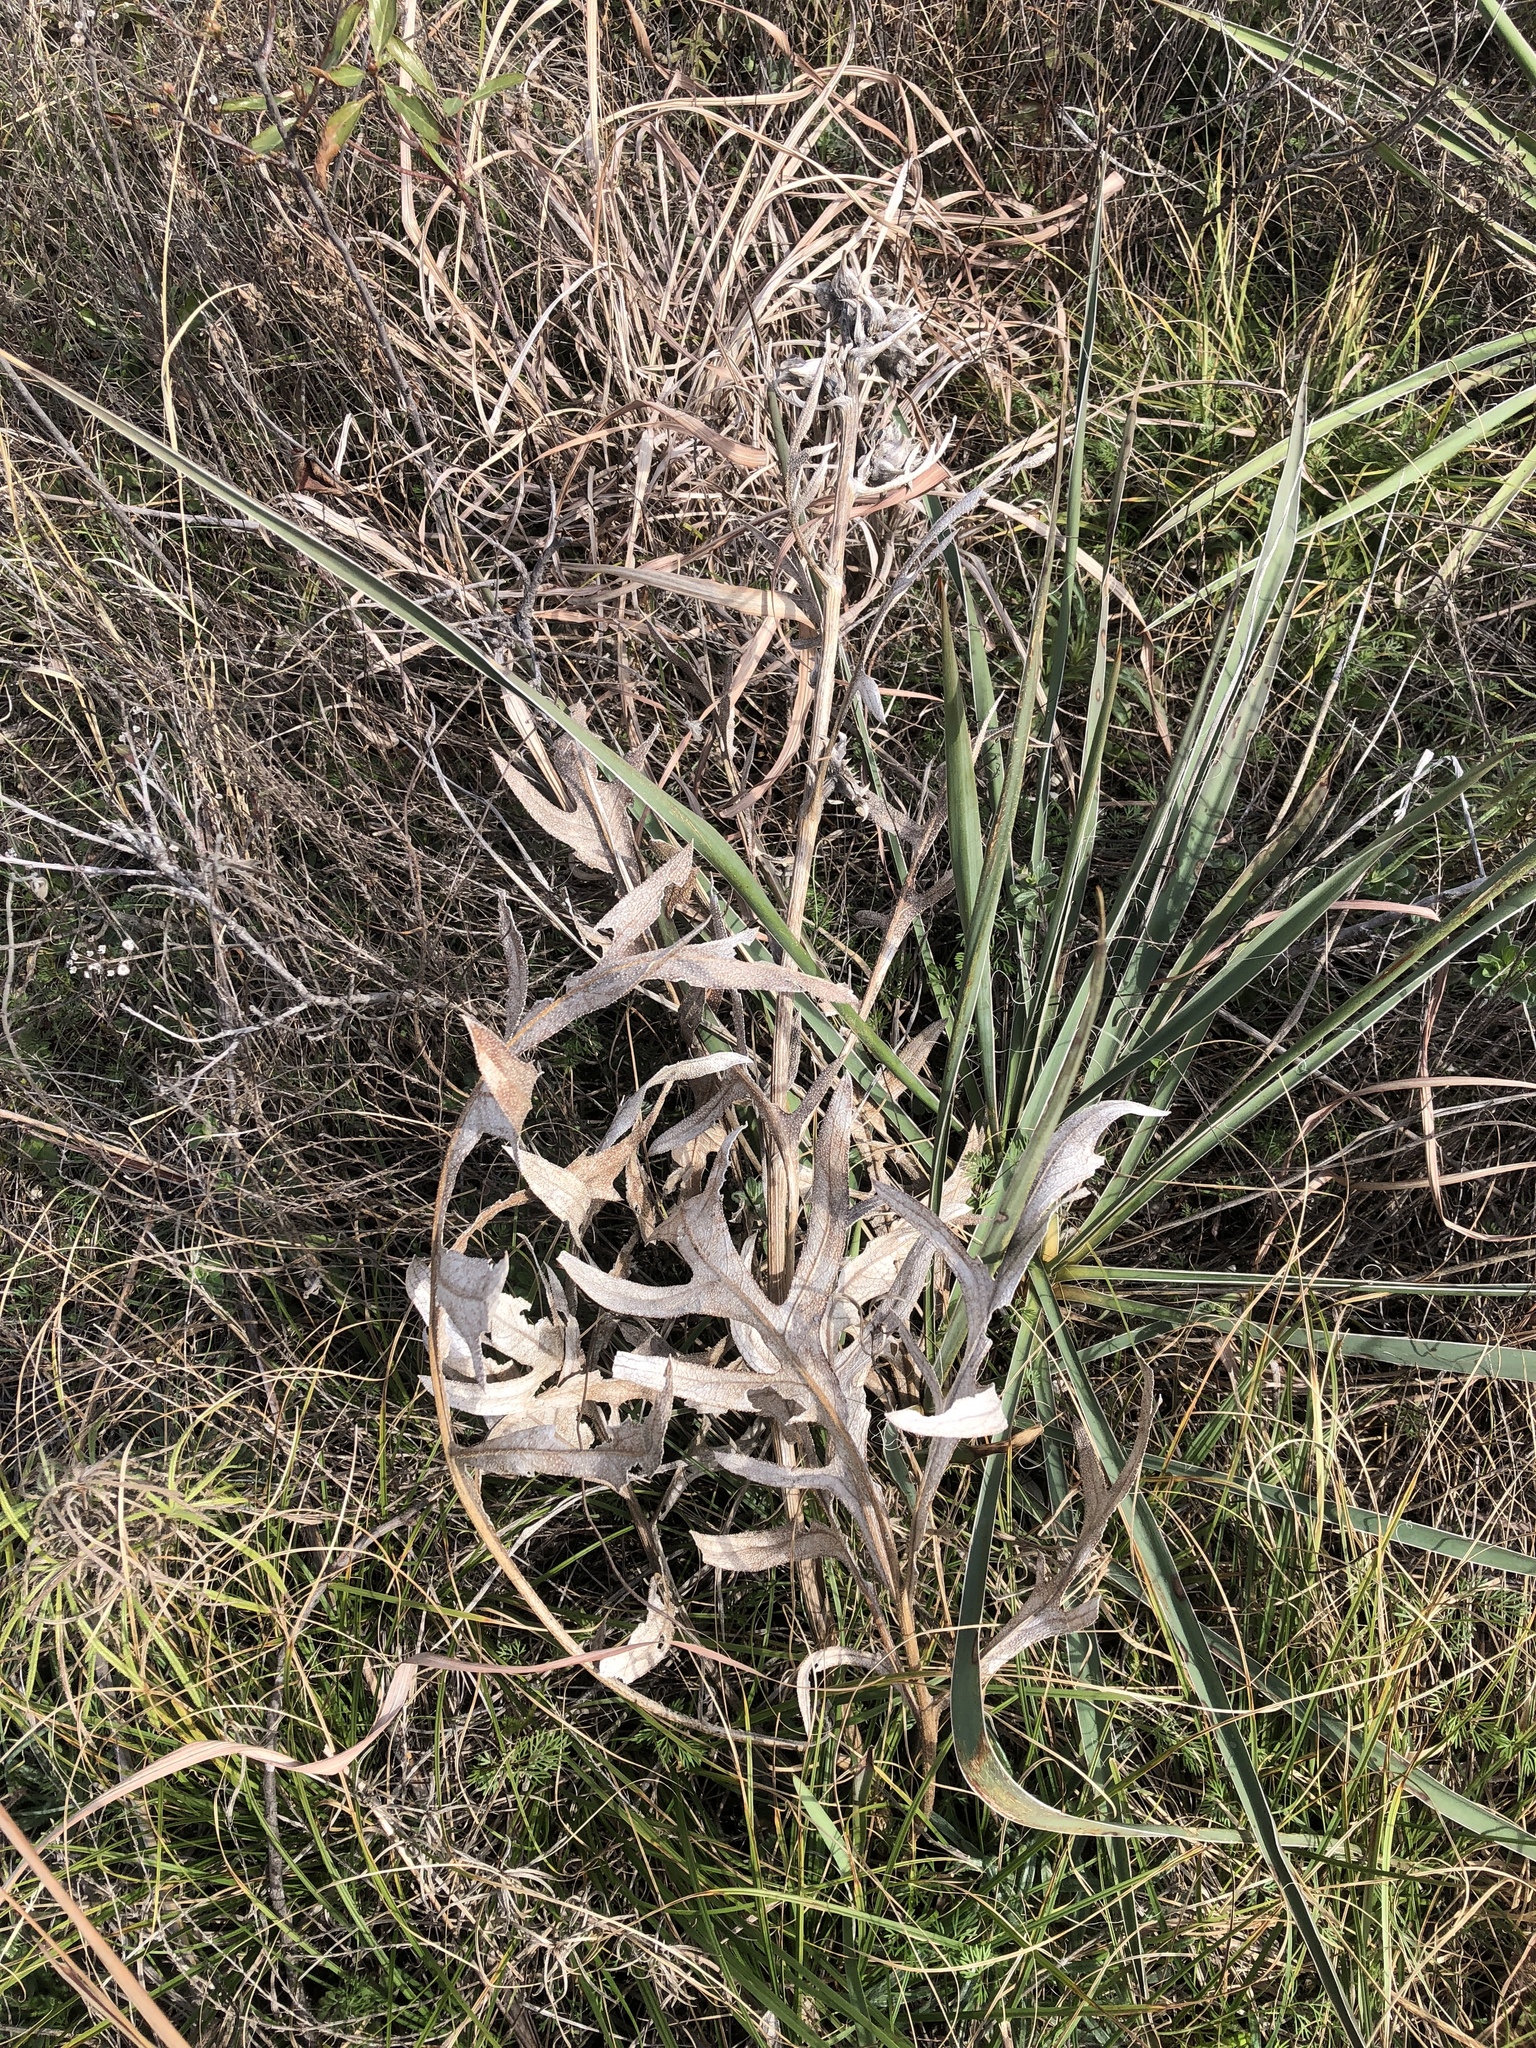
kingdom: Plantae
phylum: Tracheophyta
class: Magnoliopsida
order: Asterales
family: Asteraceae
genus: Silphium
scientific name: Silphium albiflorum
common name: White rosinweed
